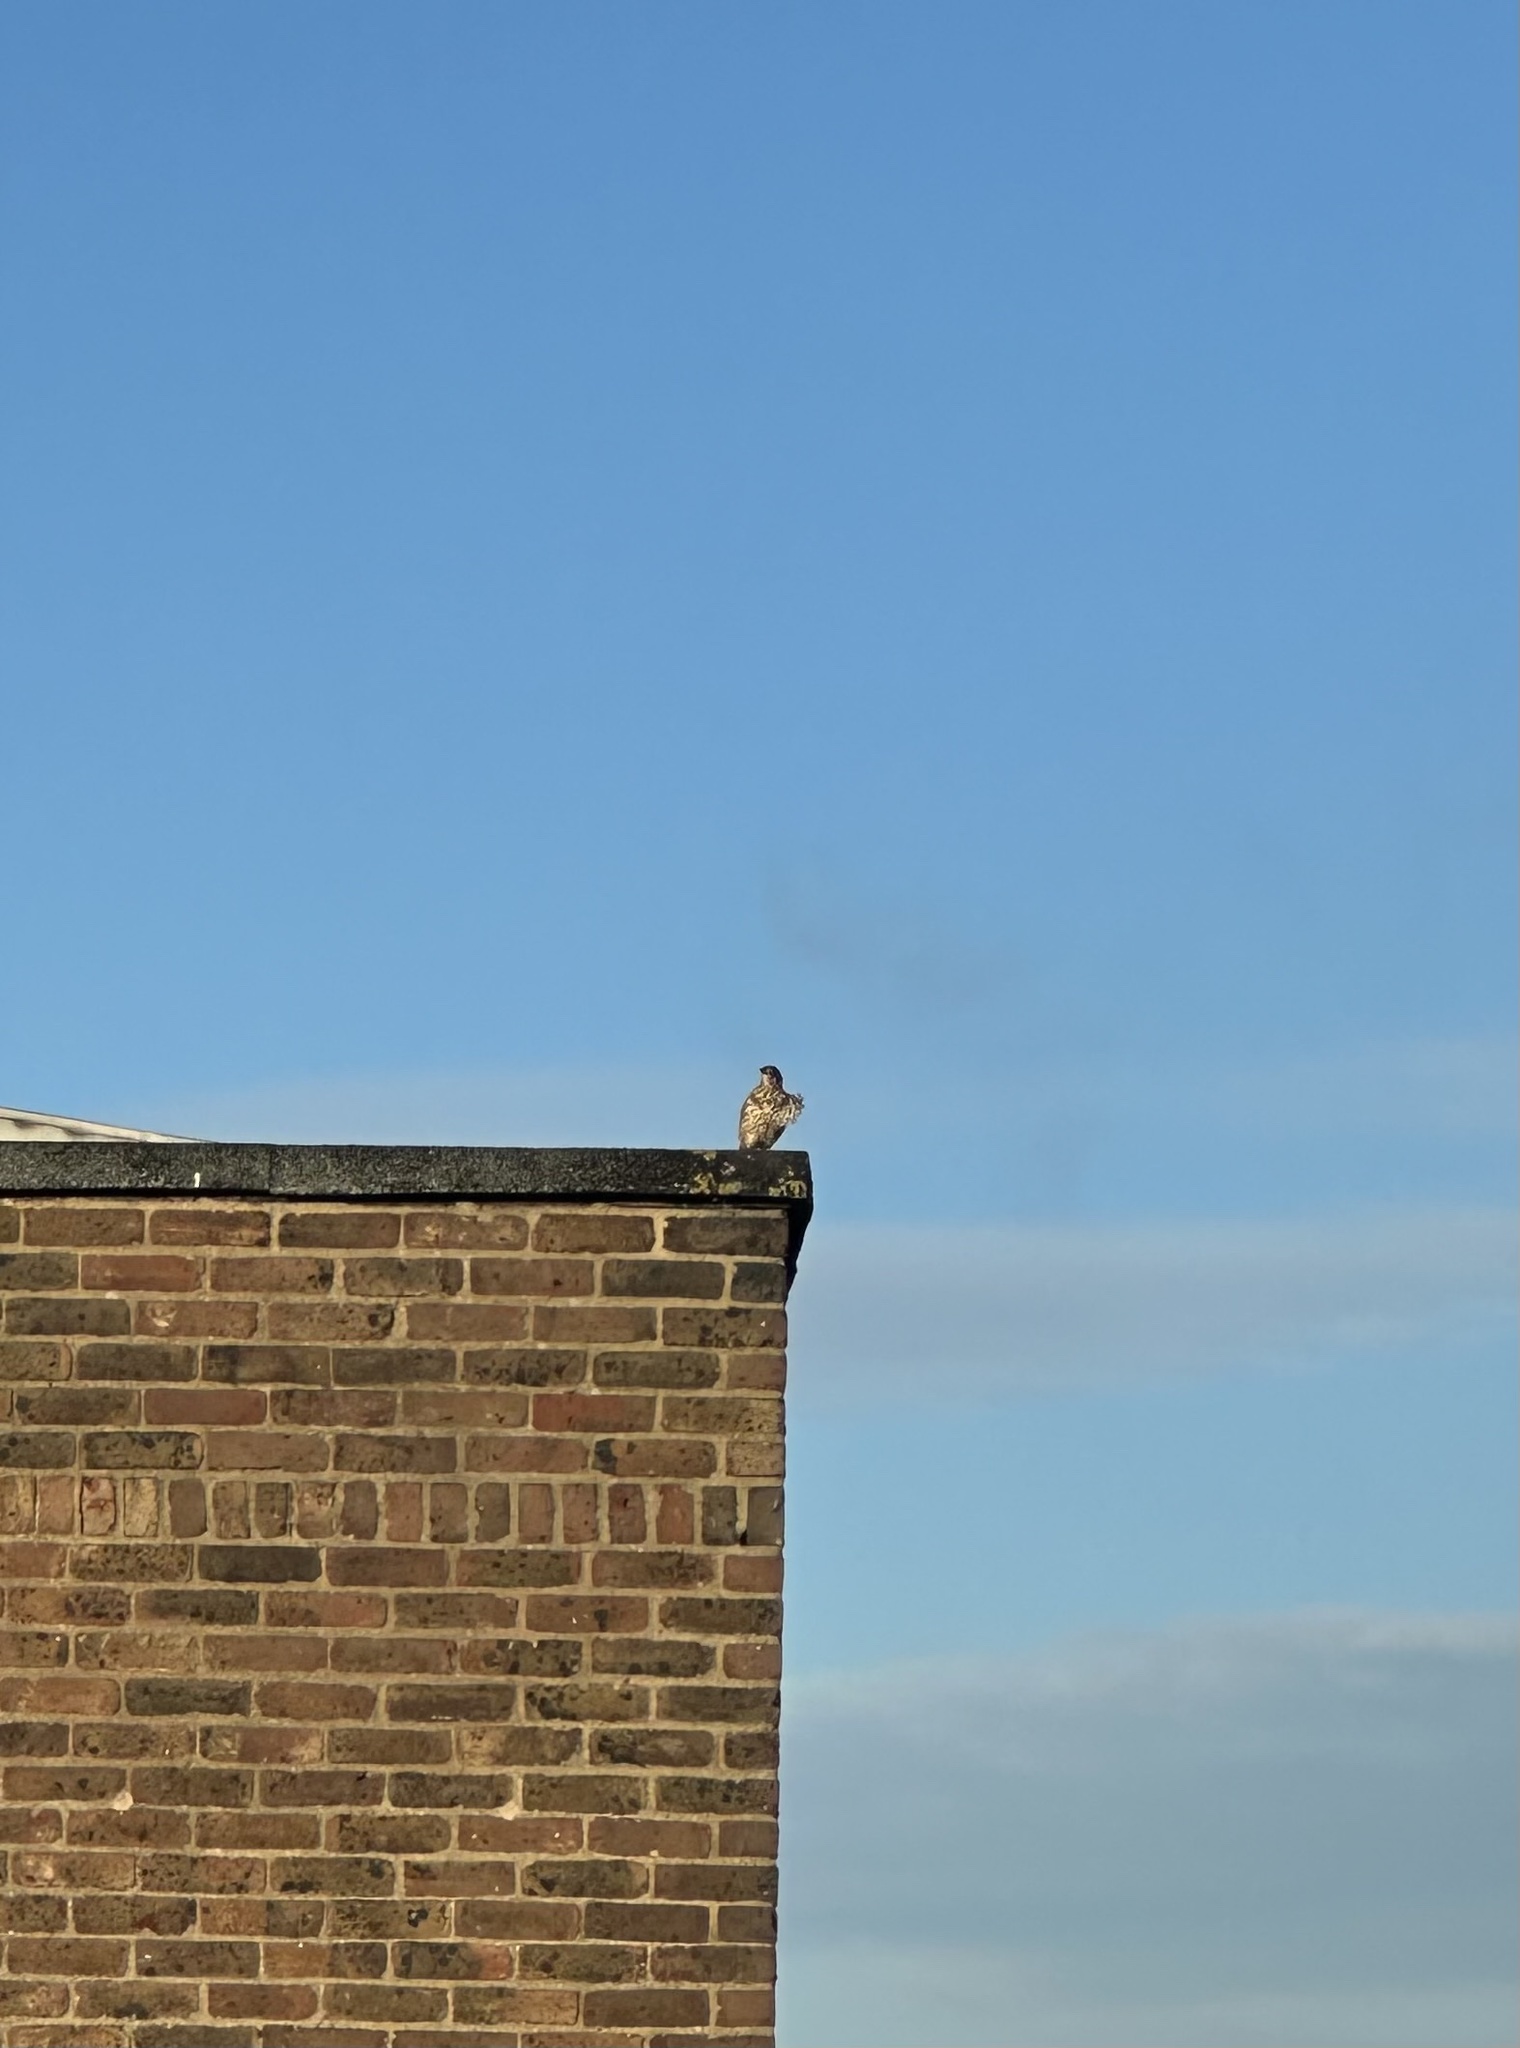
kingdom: Animalia
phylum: Chordata
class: Aves
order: Passeriformes
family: Turdidae
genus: Turdus
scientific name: Turdus viscivorus
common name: Mistle thrush
